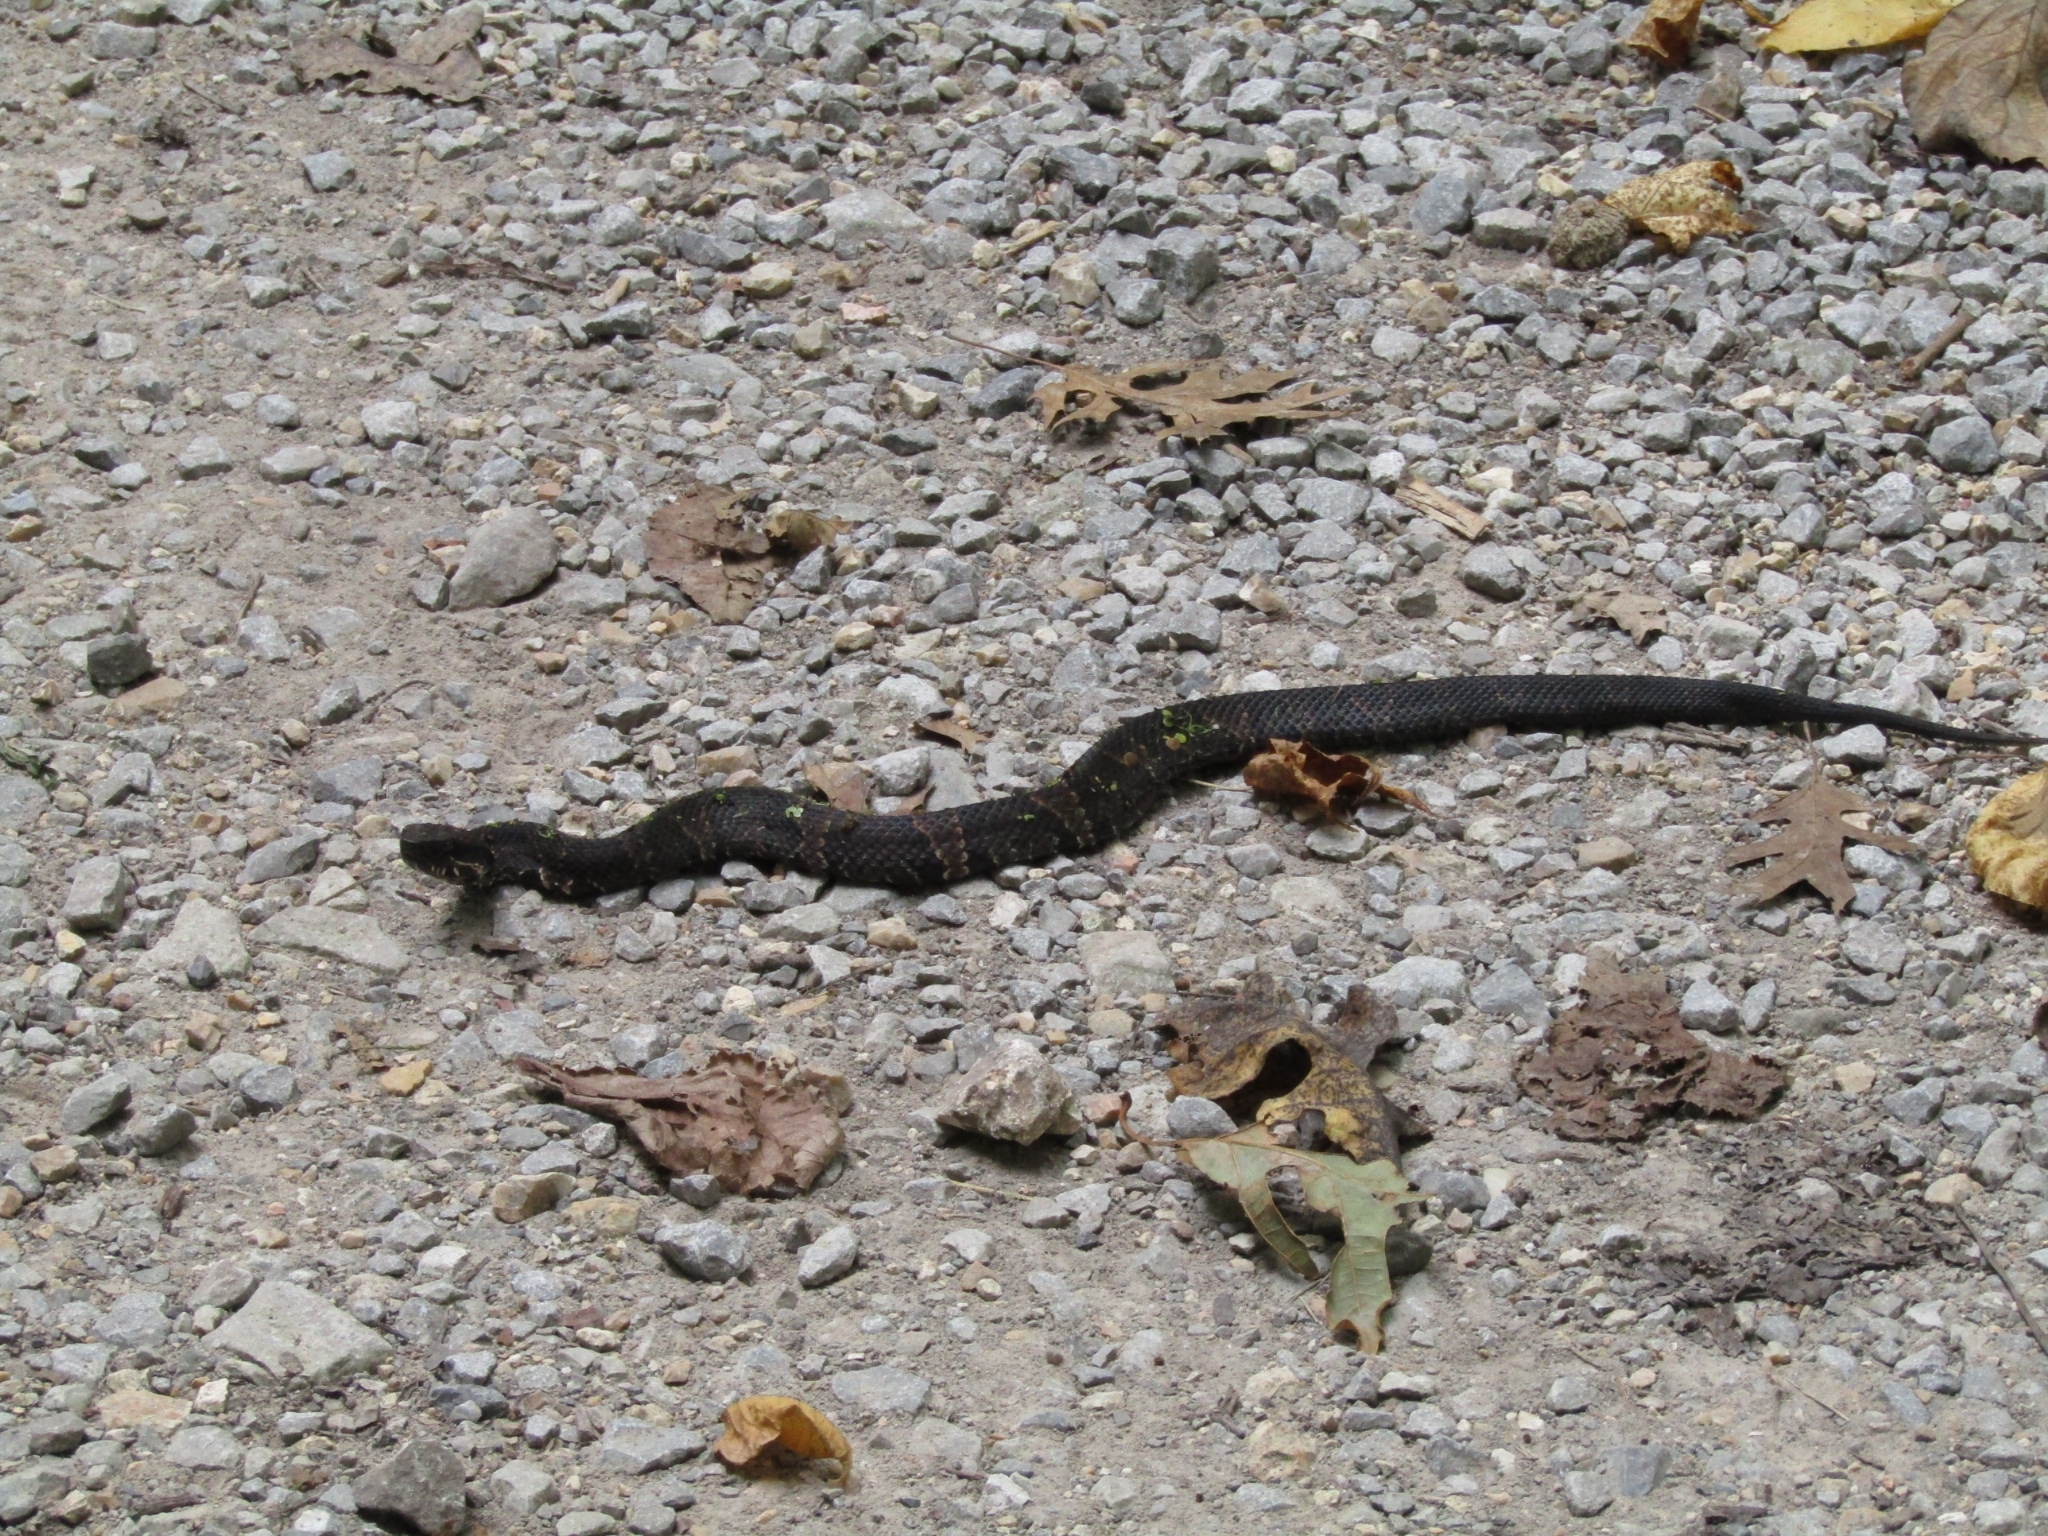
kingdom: Animalia
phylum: Chordata
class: Squamata
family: Viperidae
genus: Agkistrodon
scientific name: Agkistrodon piscivorus
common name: Cottonmouth
